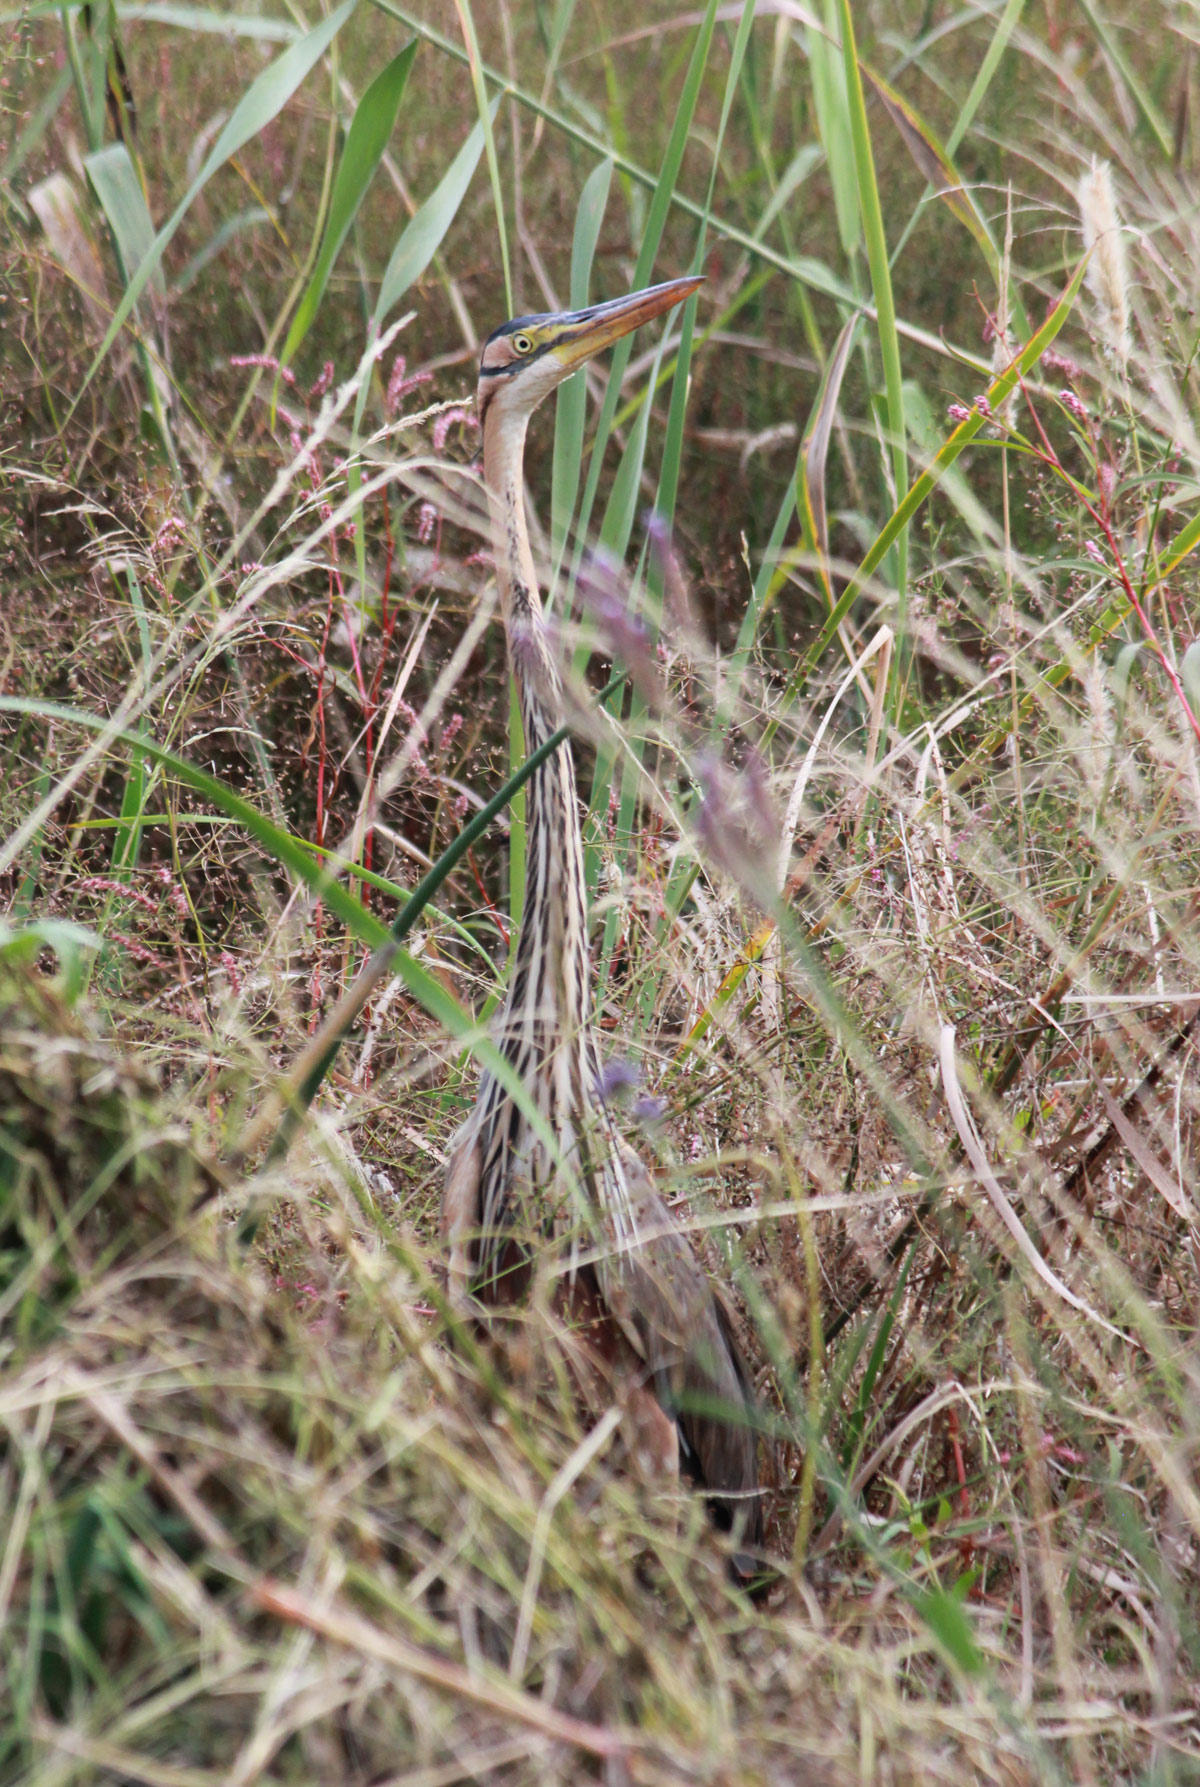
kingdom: Animalia
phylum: Chordata
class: Aves
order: Pelecaniformes
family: Ardeidae
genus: Ardea
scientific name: Ardea purpurea
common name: Purple heron
